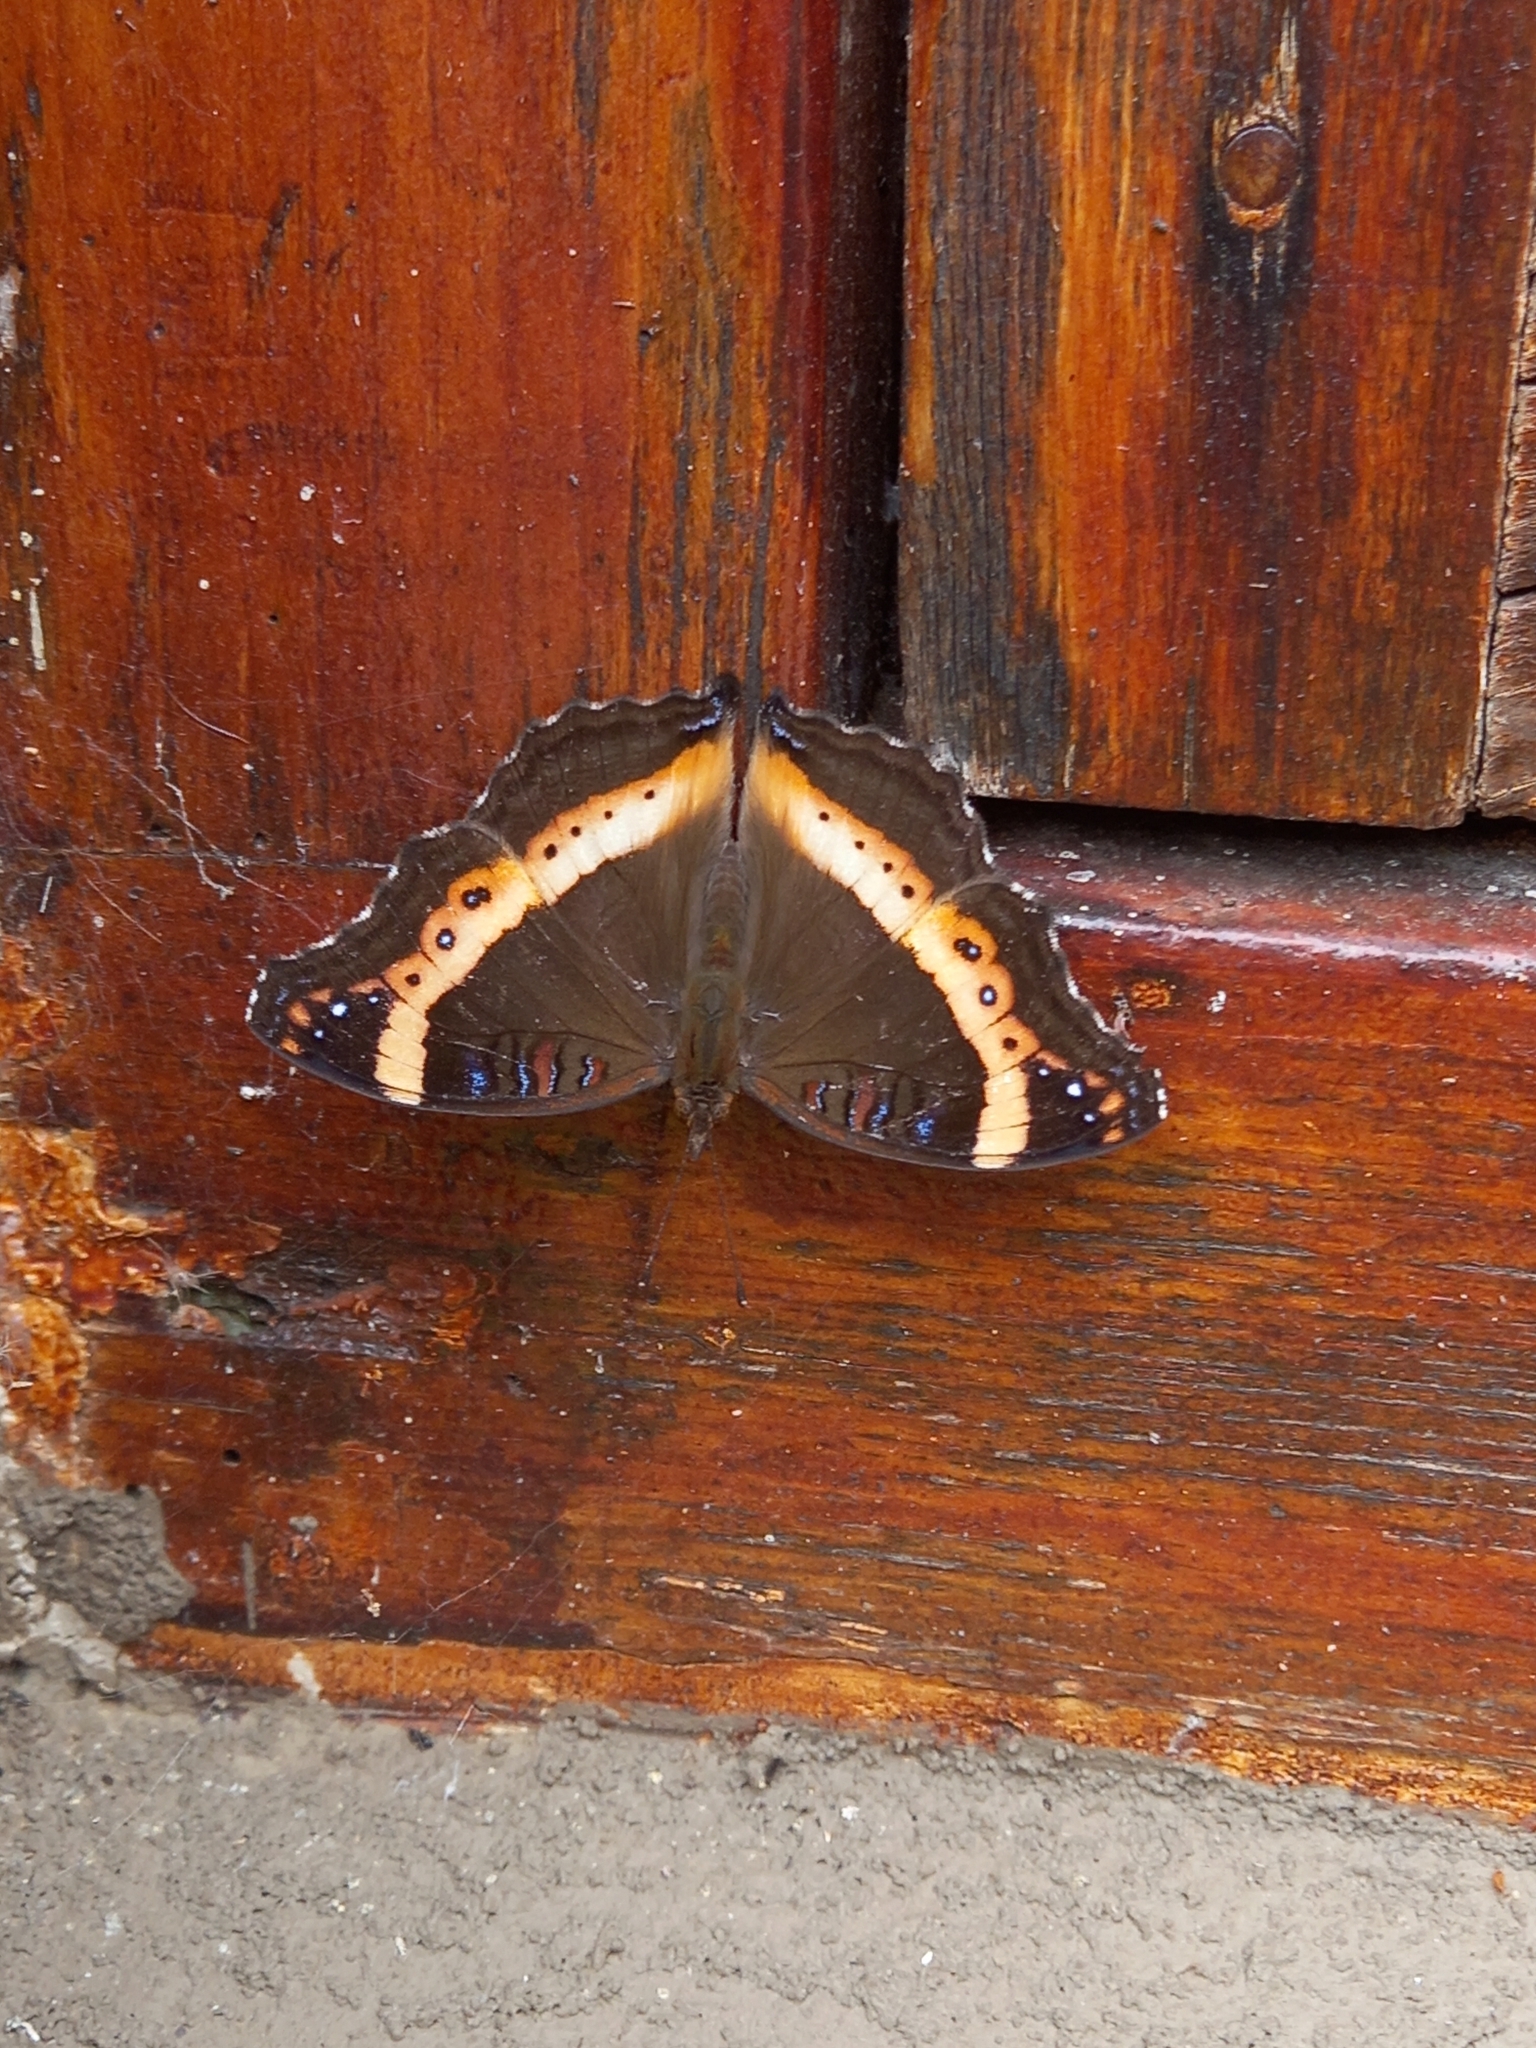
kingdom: Animalia
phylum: Arthropoda
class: Insecta
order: Lepidoptera
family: Nymphalidae
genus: Junonia
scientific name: Junonia archesia
